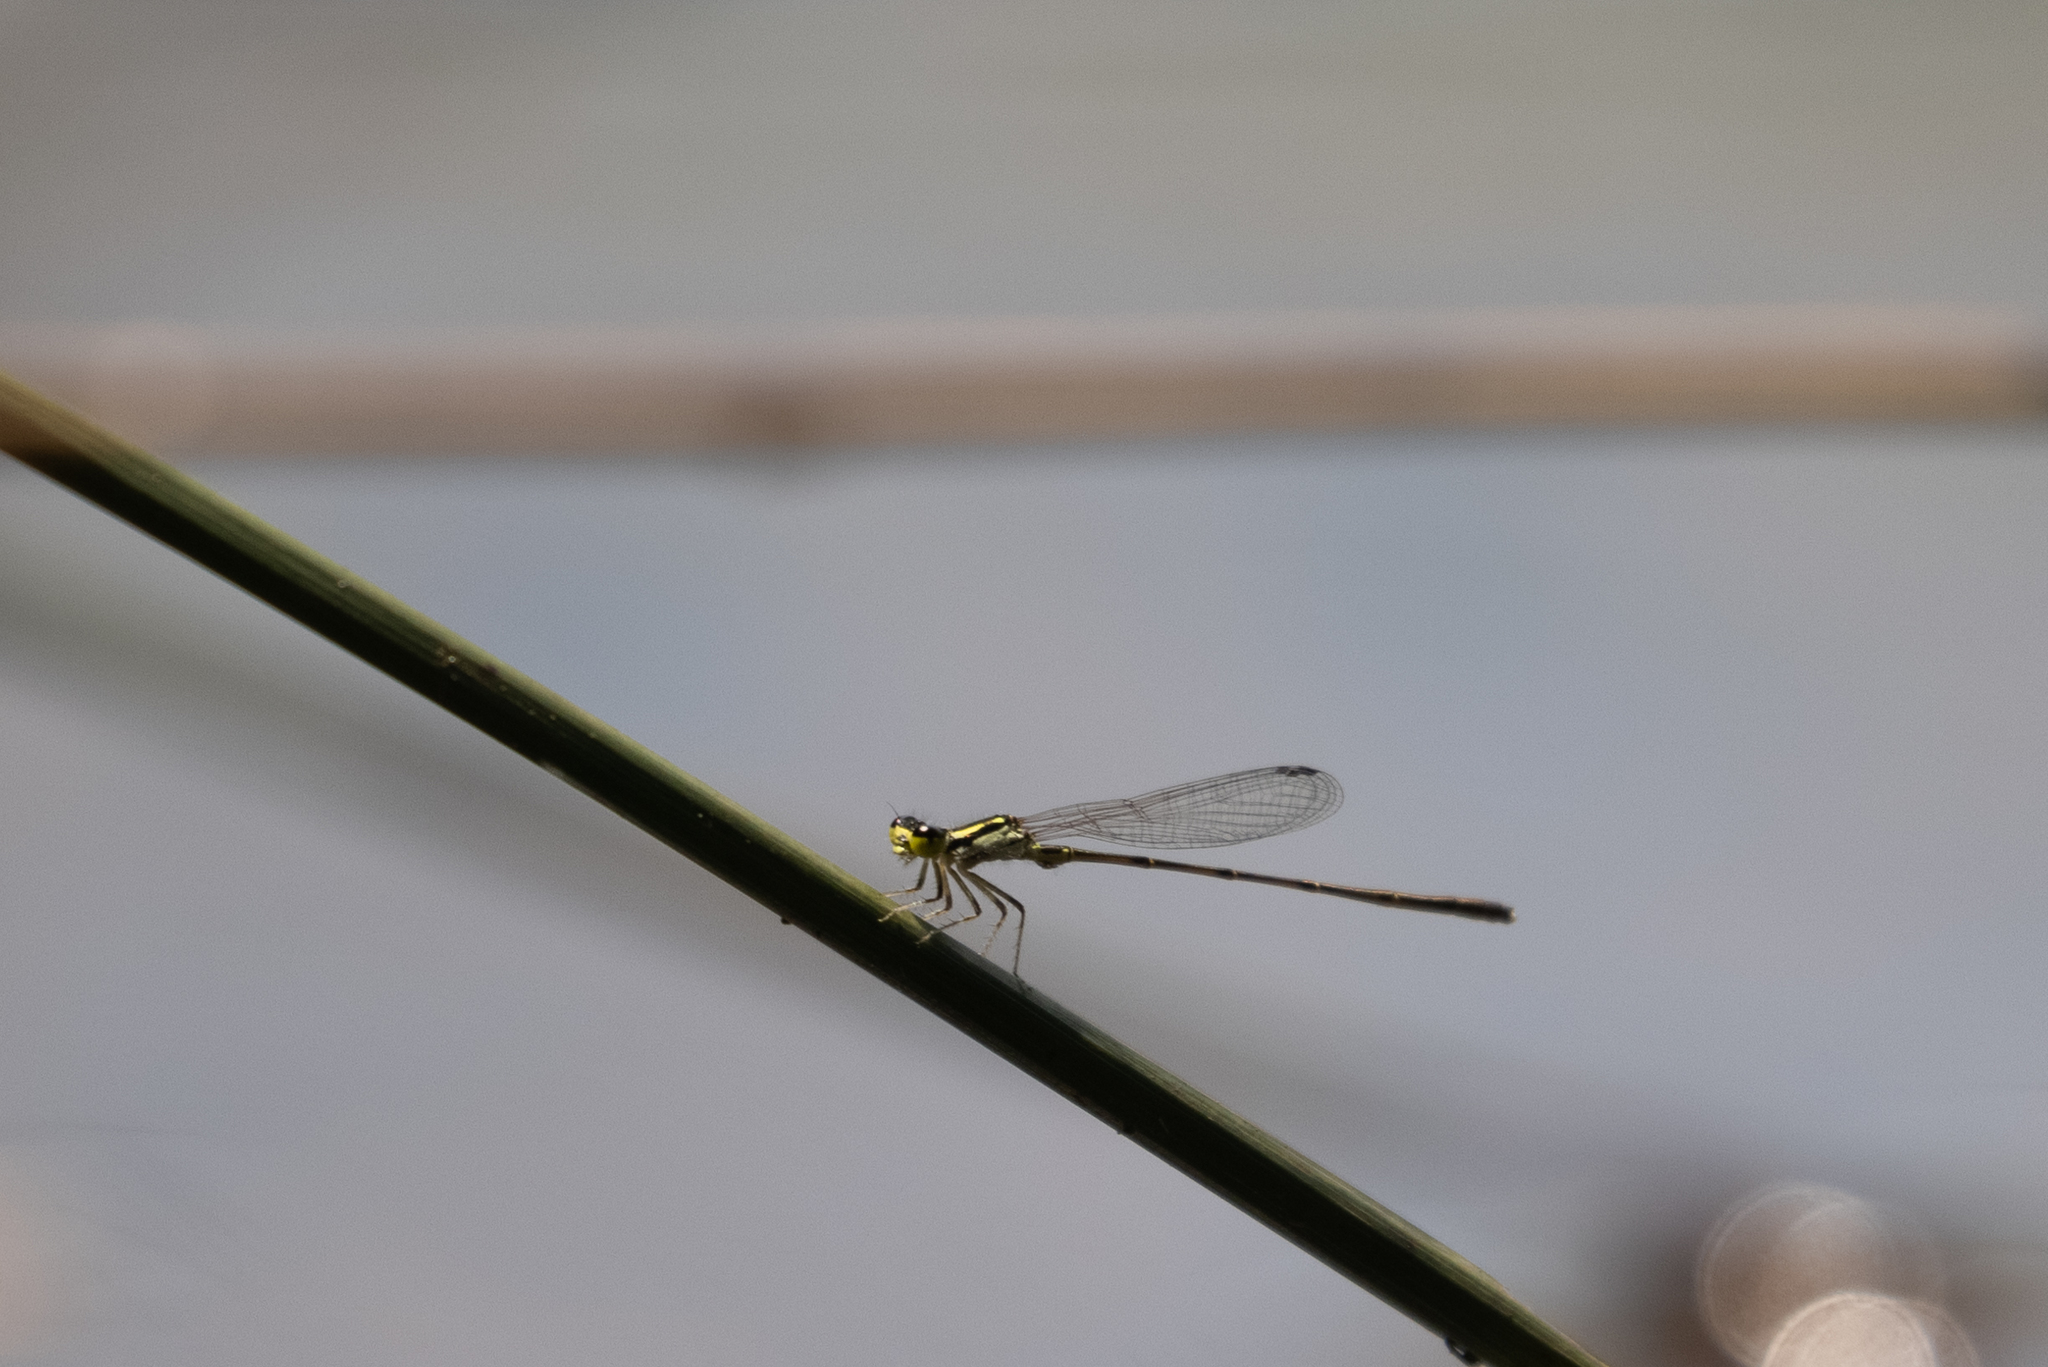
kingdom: Animalia
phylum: Arthropoda
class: Insecta
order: Odonata
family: Coenagrionidae
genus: Ischnura
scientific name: Ischnura posita
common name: Fragile forktail
